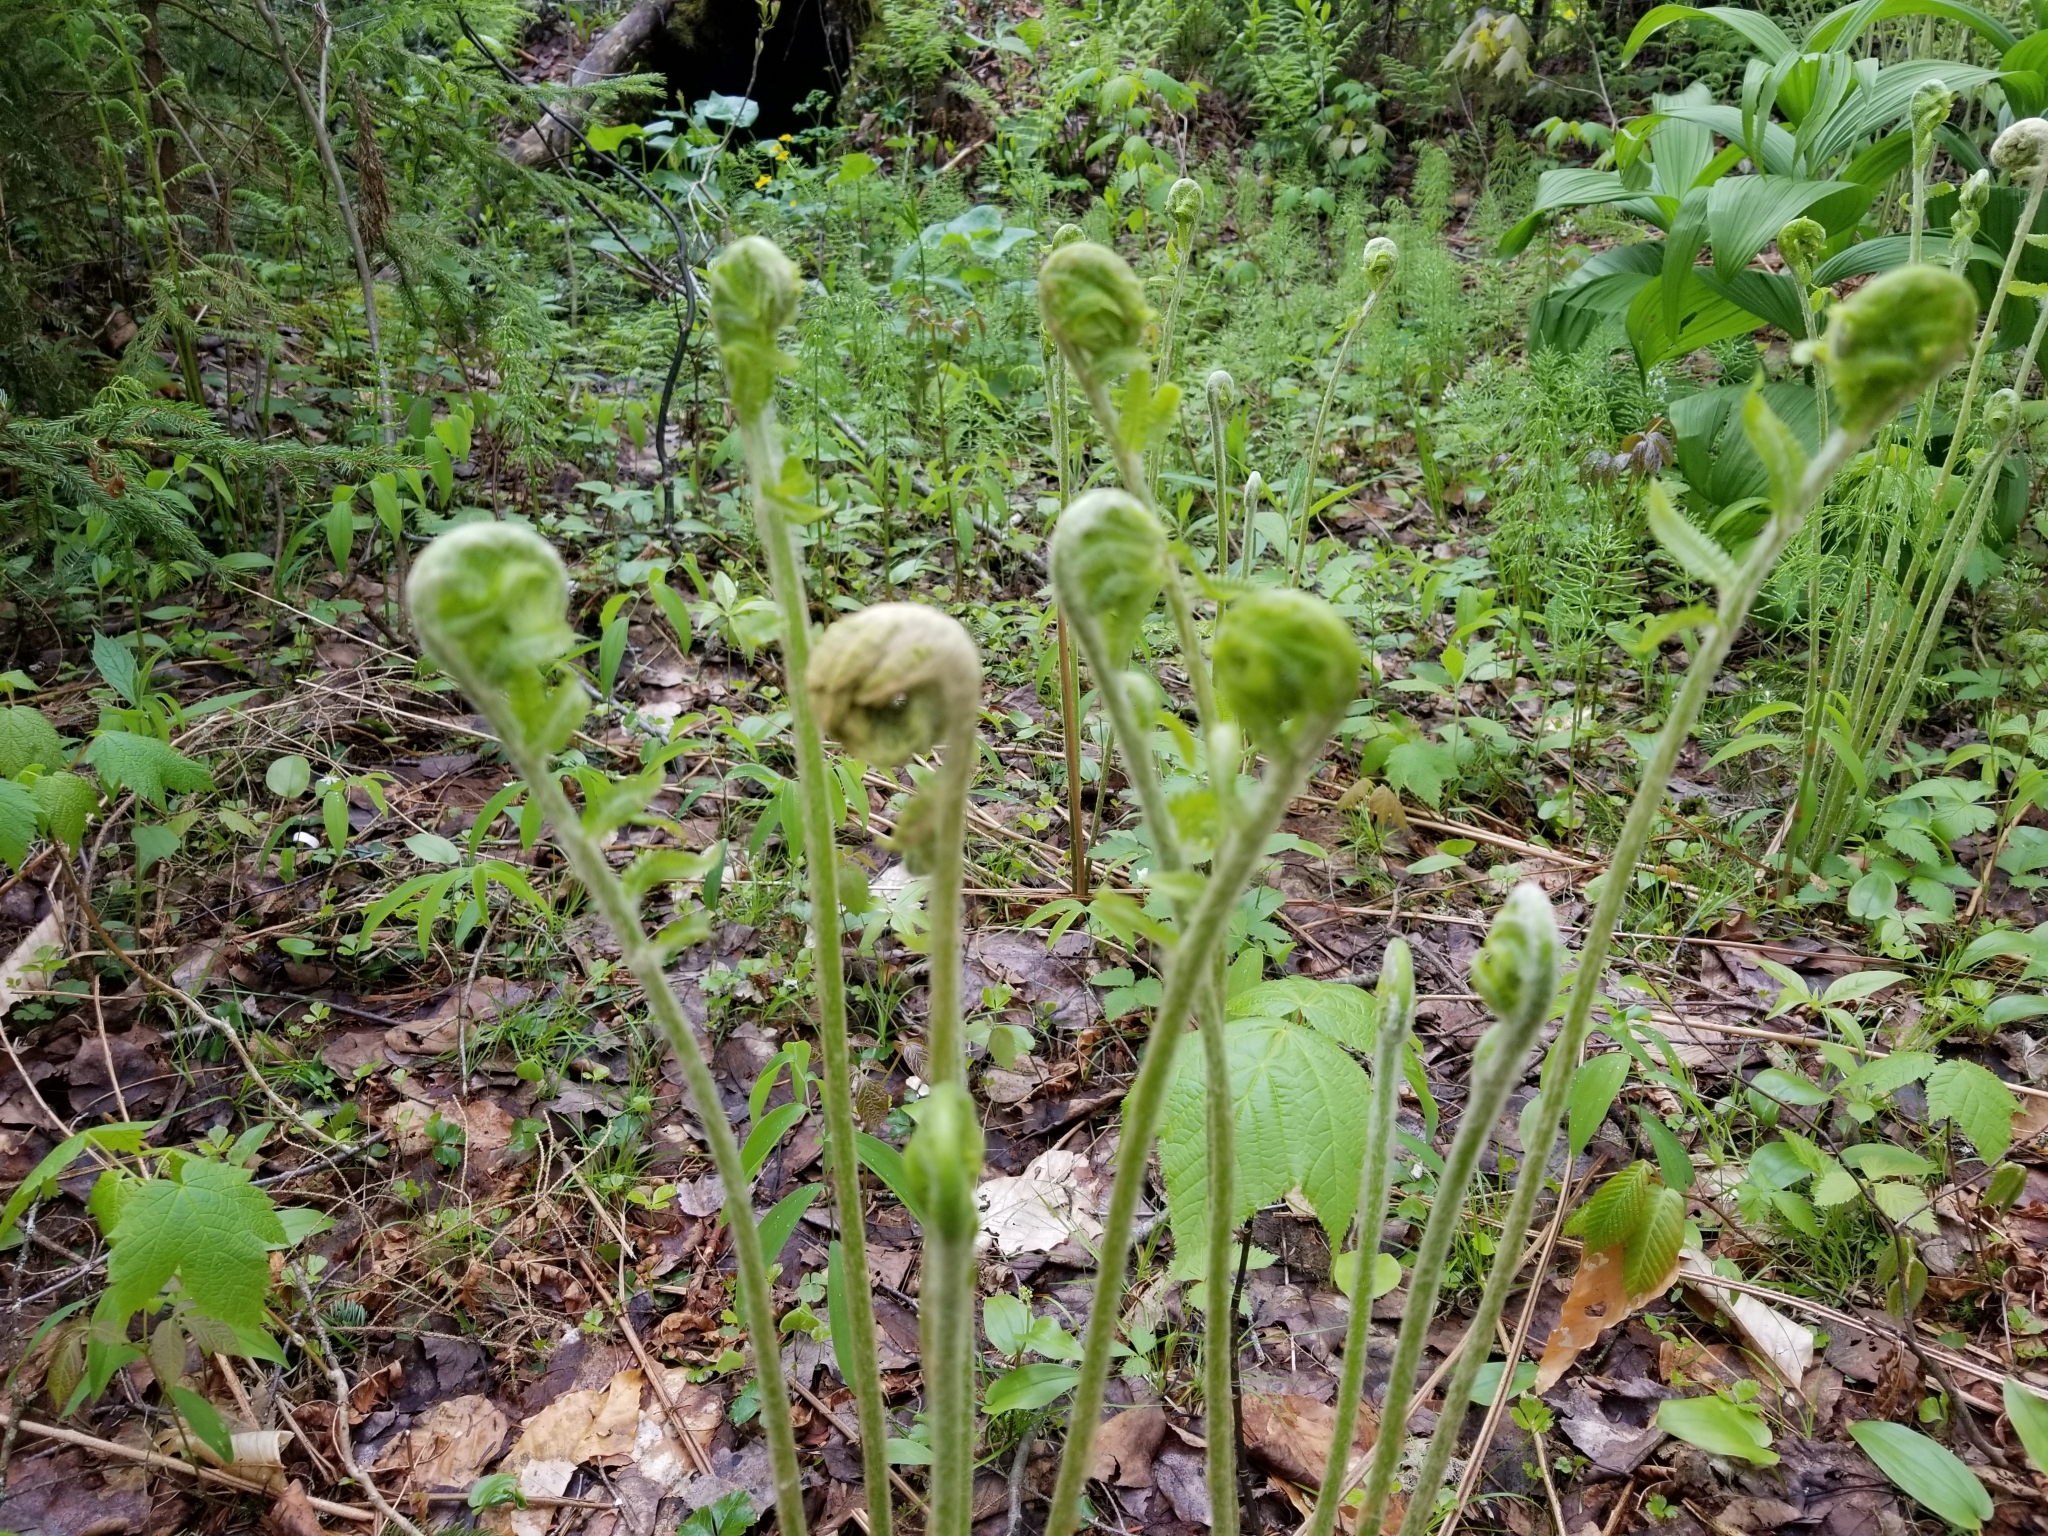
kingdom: Plantae
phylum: Tracheophyta
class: Polypodiopsida
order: Osmundales
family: Osmundaceae
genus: Osmundastrum
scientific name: Osmundastrum cinnamomeum
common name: Cinnamon fern
